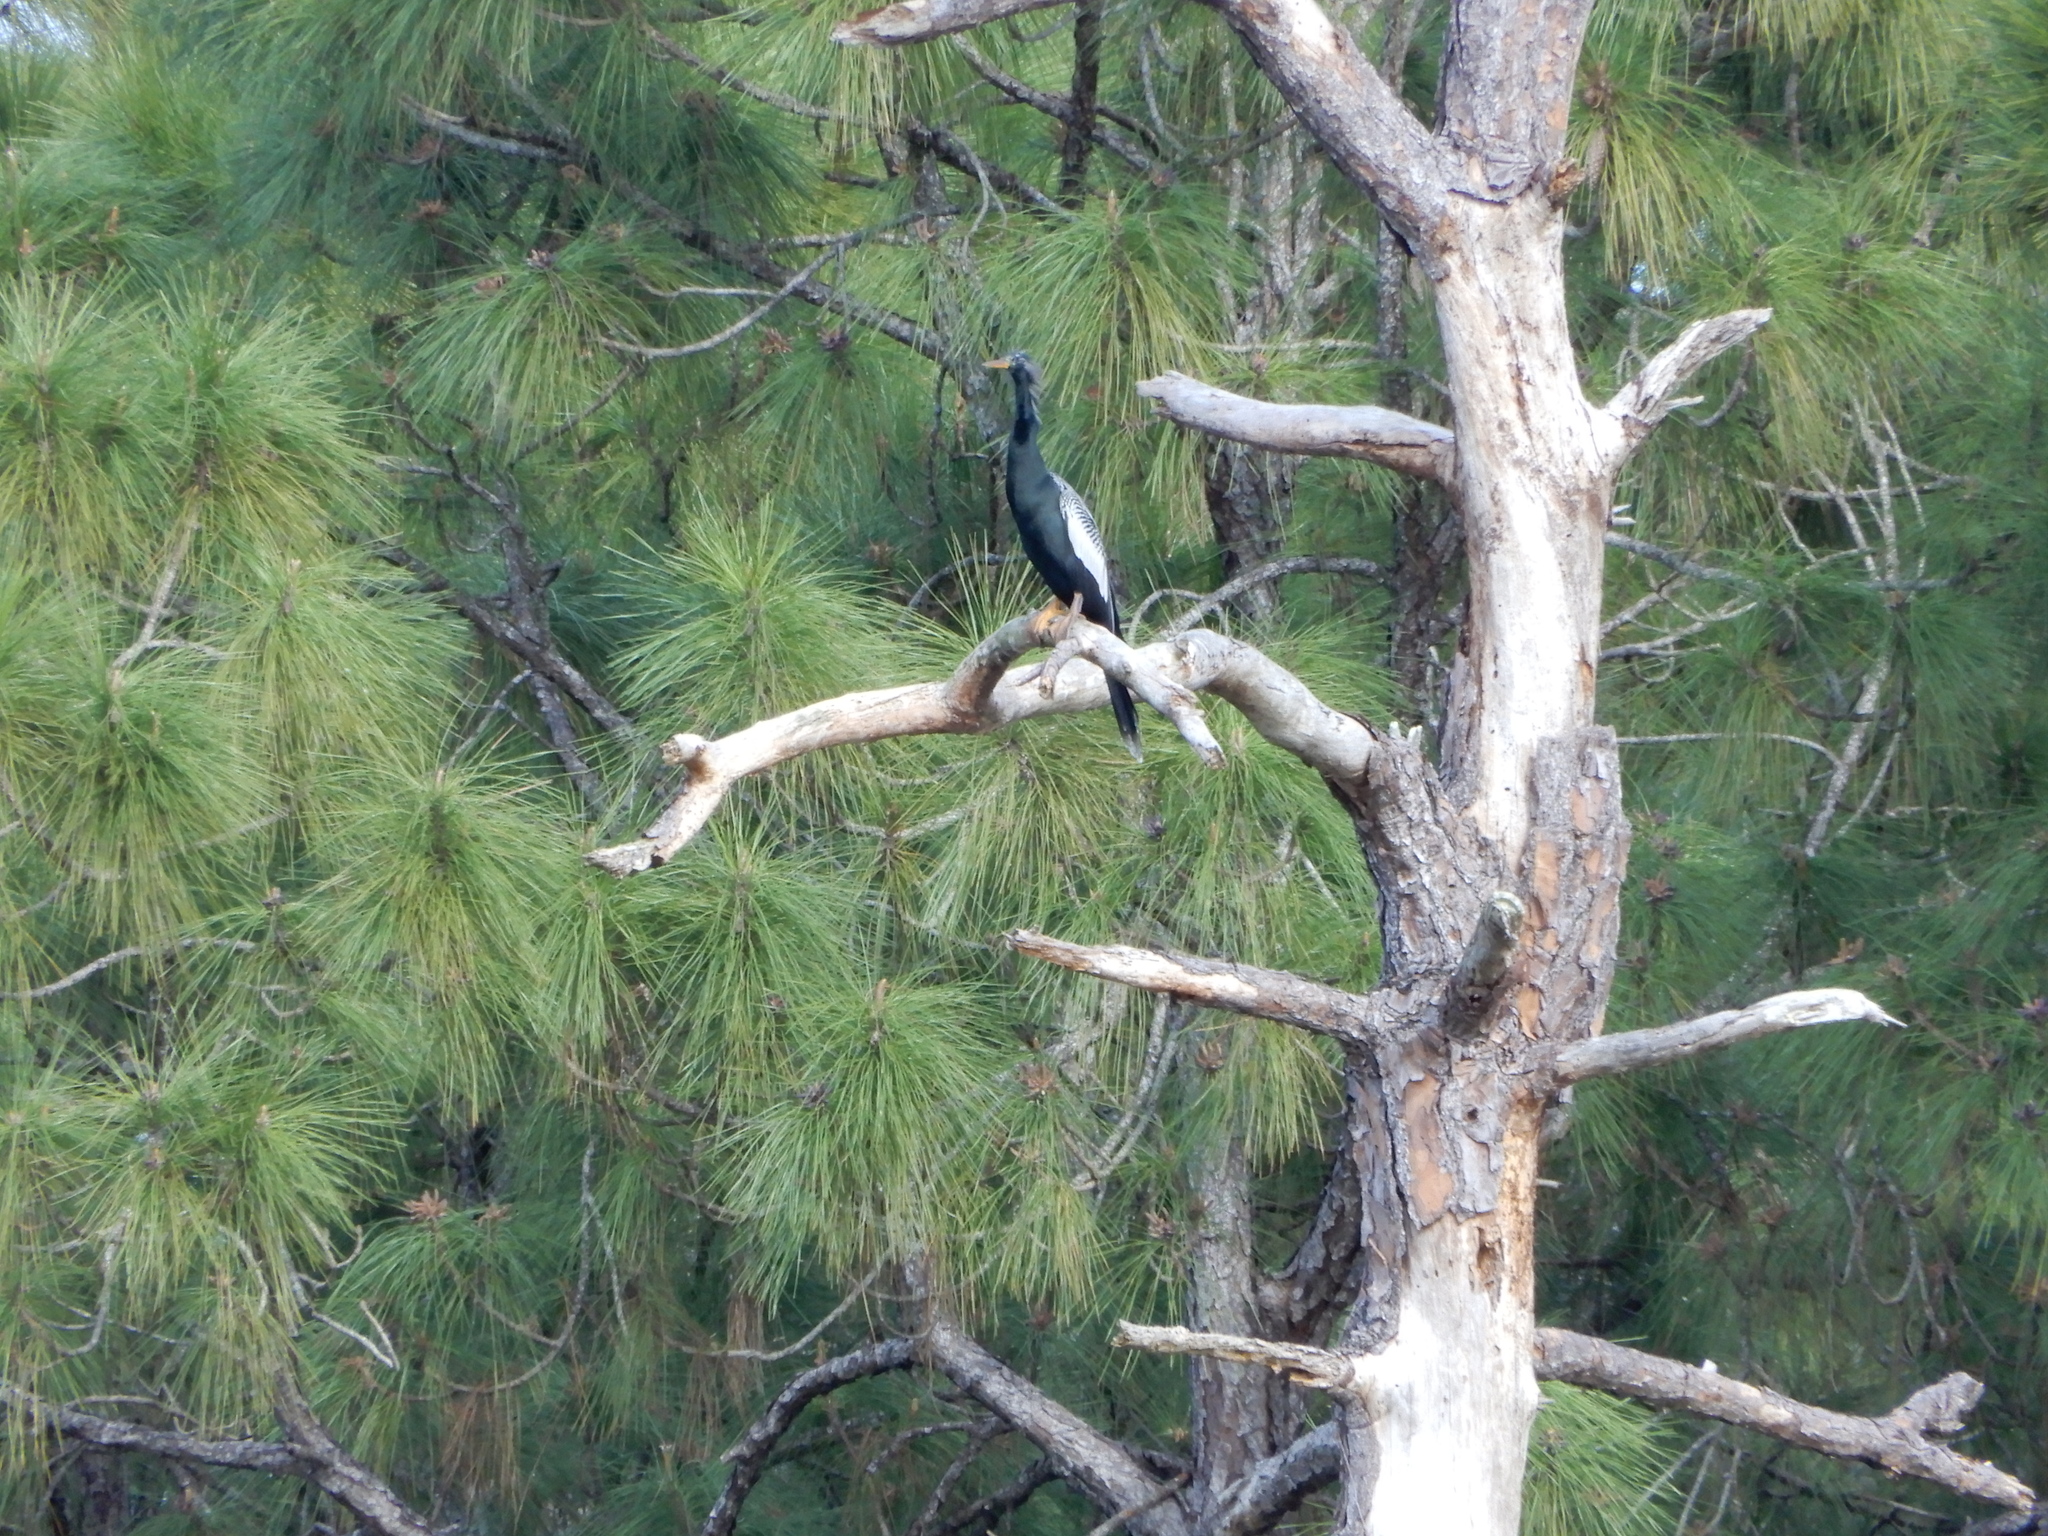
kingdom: Animalia
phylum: Chordata
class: Aves
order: Suliformes
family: Anhingidae
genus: Anhinga
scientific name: Anhinga anhinga
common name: Anhinga
